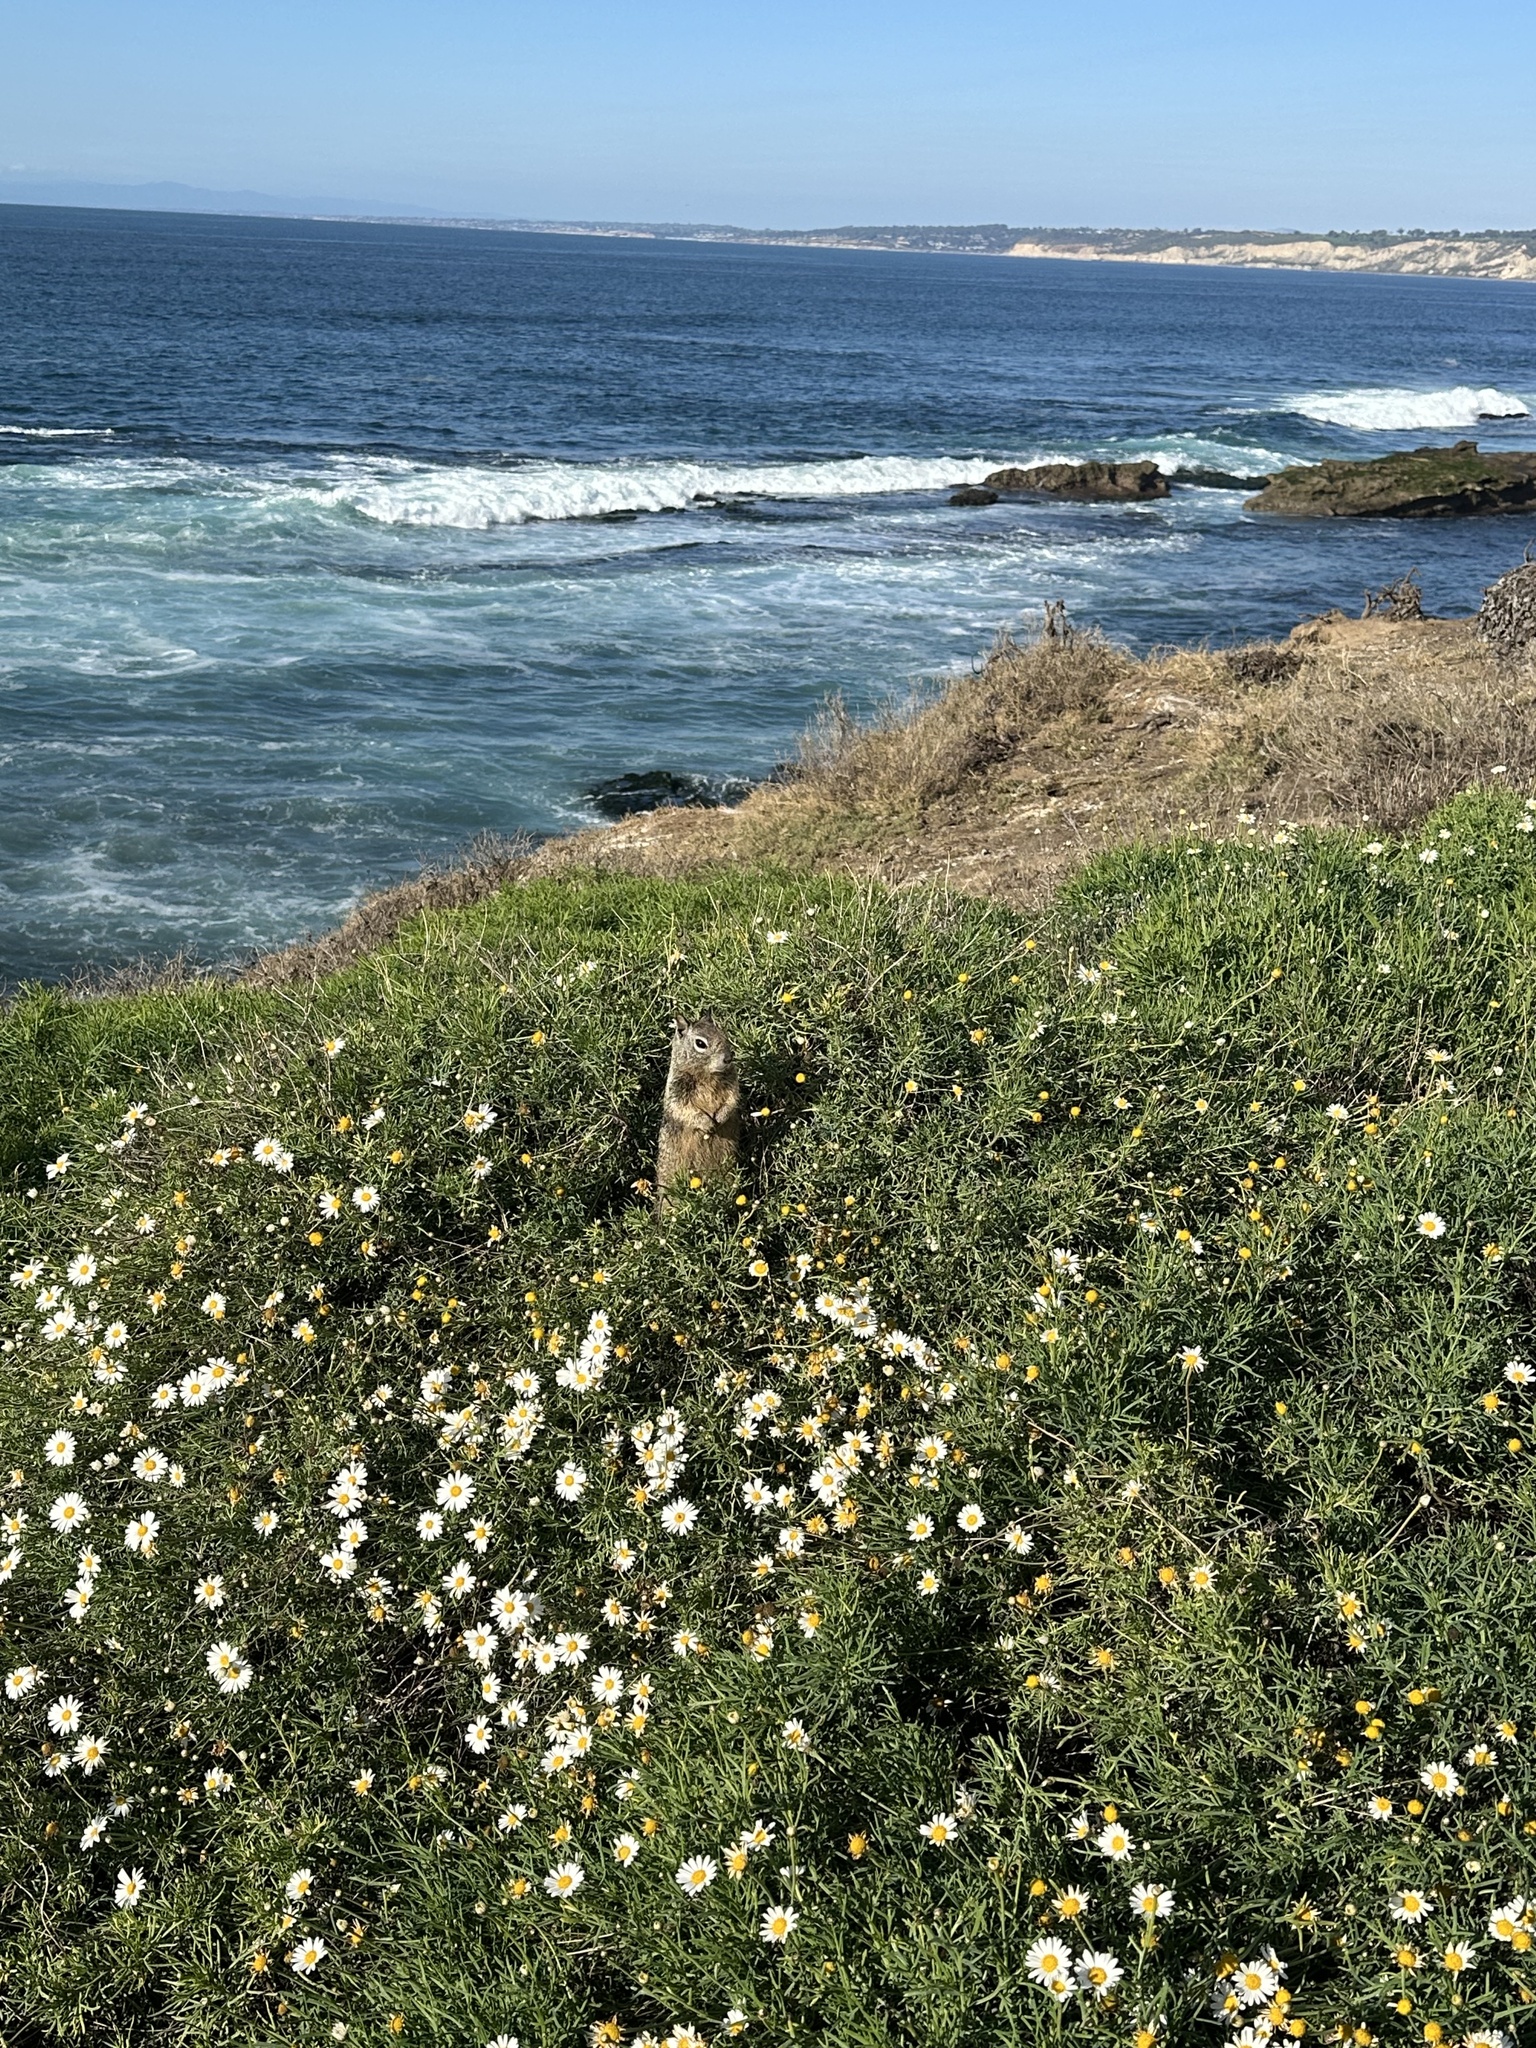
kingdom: Animalia
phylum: Chordata
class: Mammalia
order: Rodentia
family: Sciuridae
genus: Otospermophilus
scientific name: Otospermophilus beecheyi
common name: California ground squirrel
